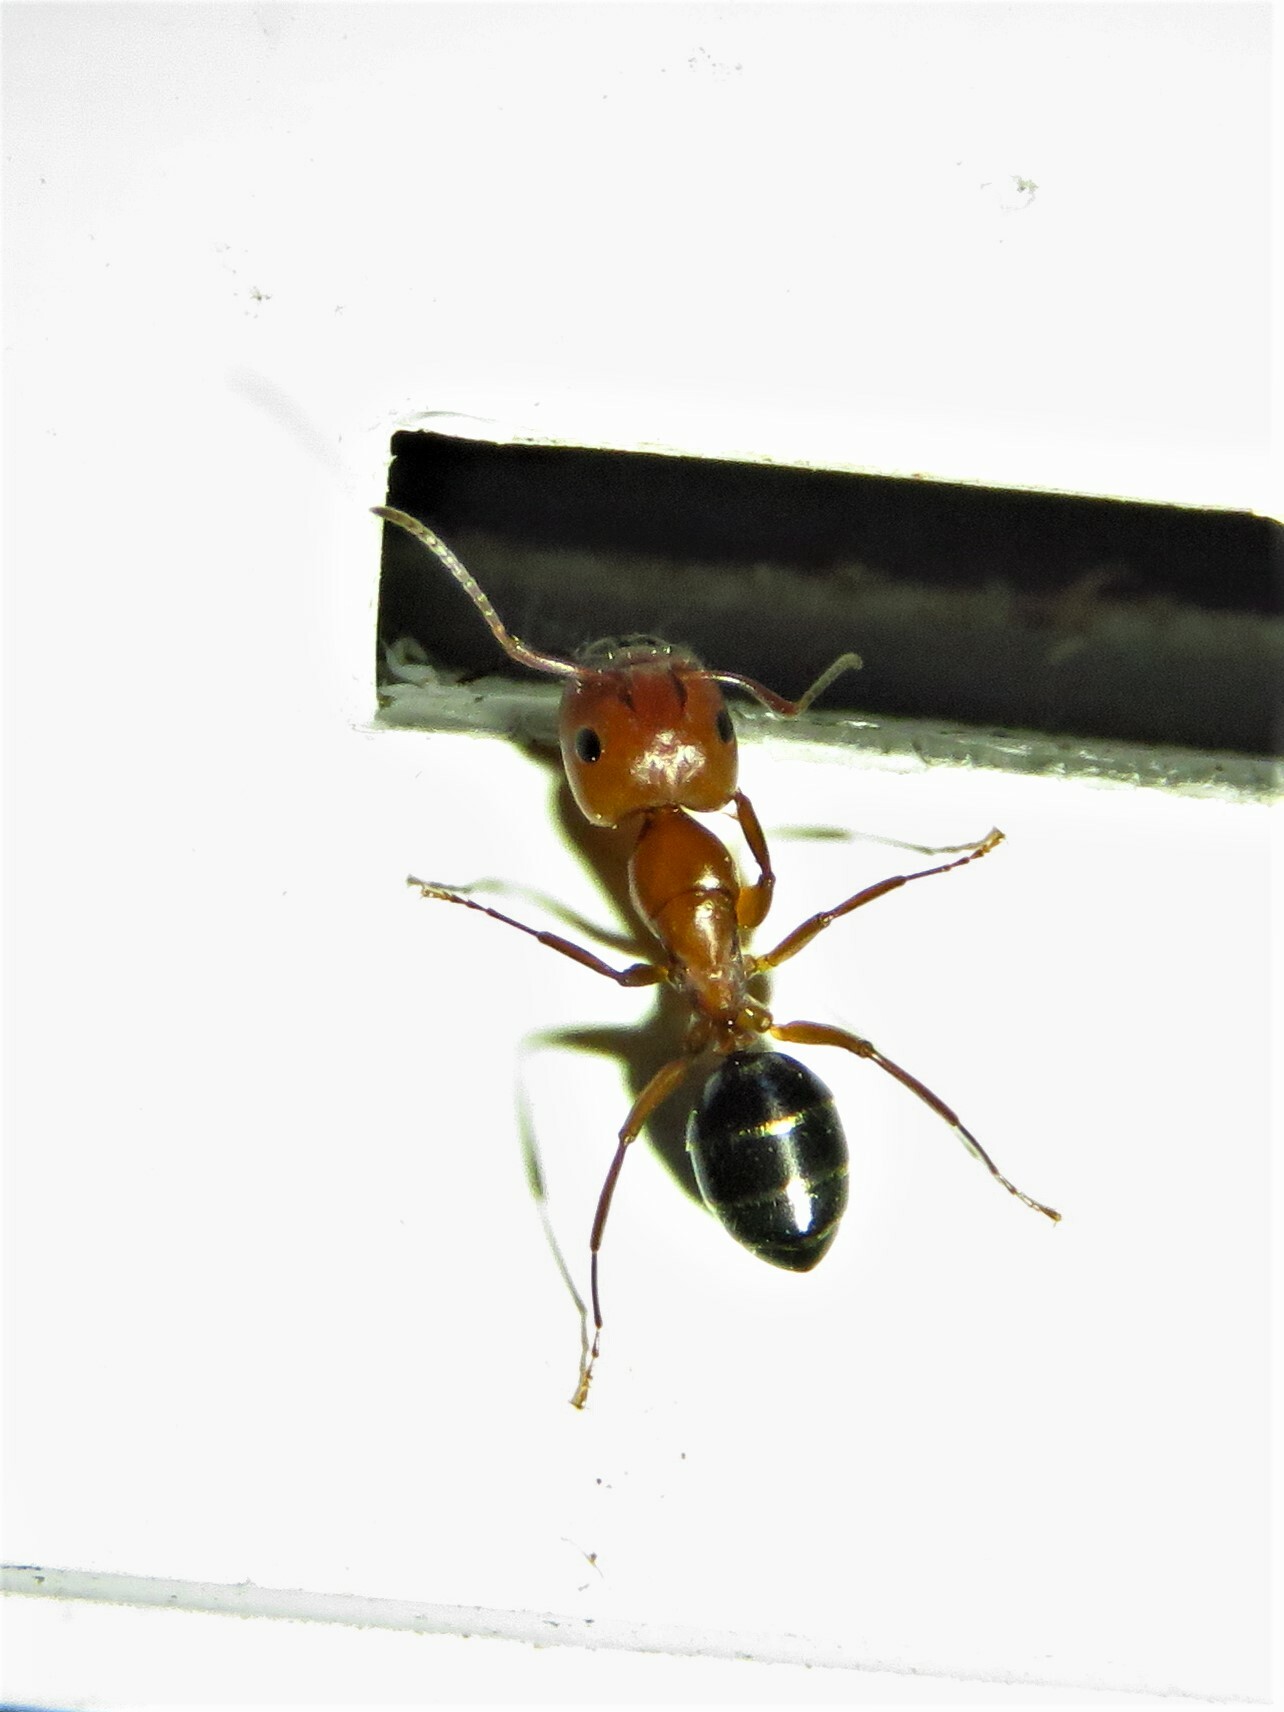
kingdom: Animalia
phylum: Arthropoda
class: Insecta
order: Hymenoptera
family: Formicidae
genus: Camponotus
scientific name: Camponotus discolor
